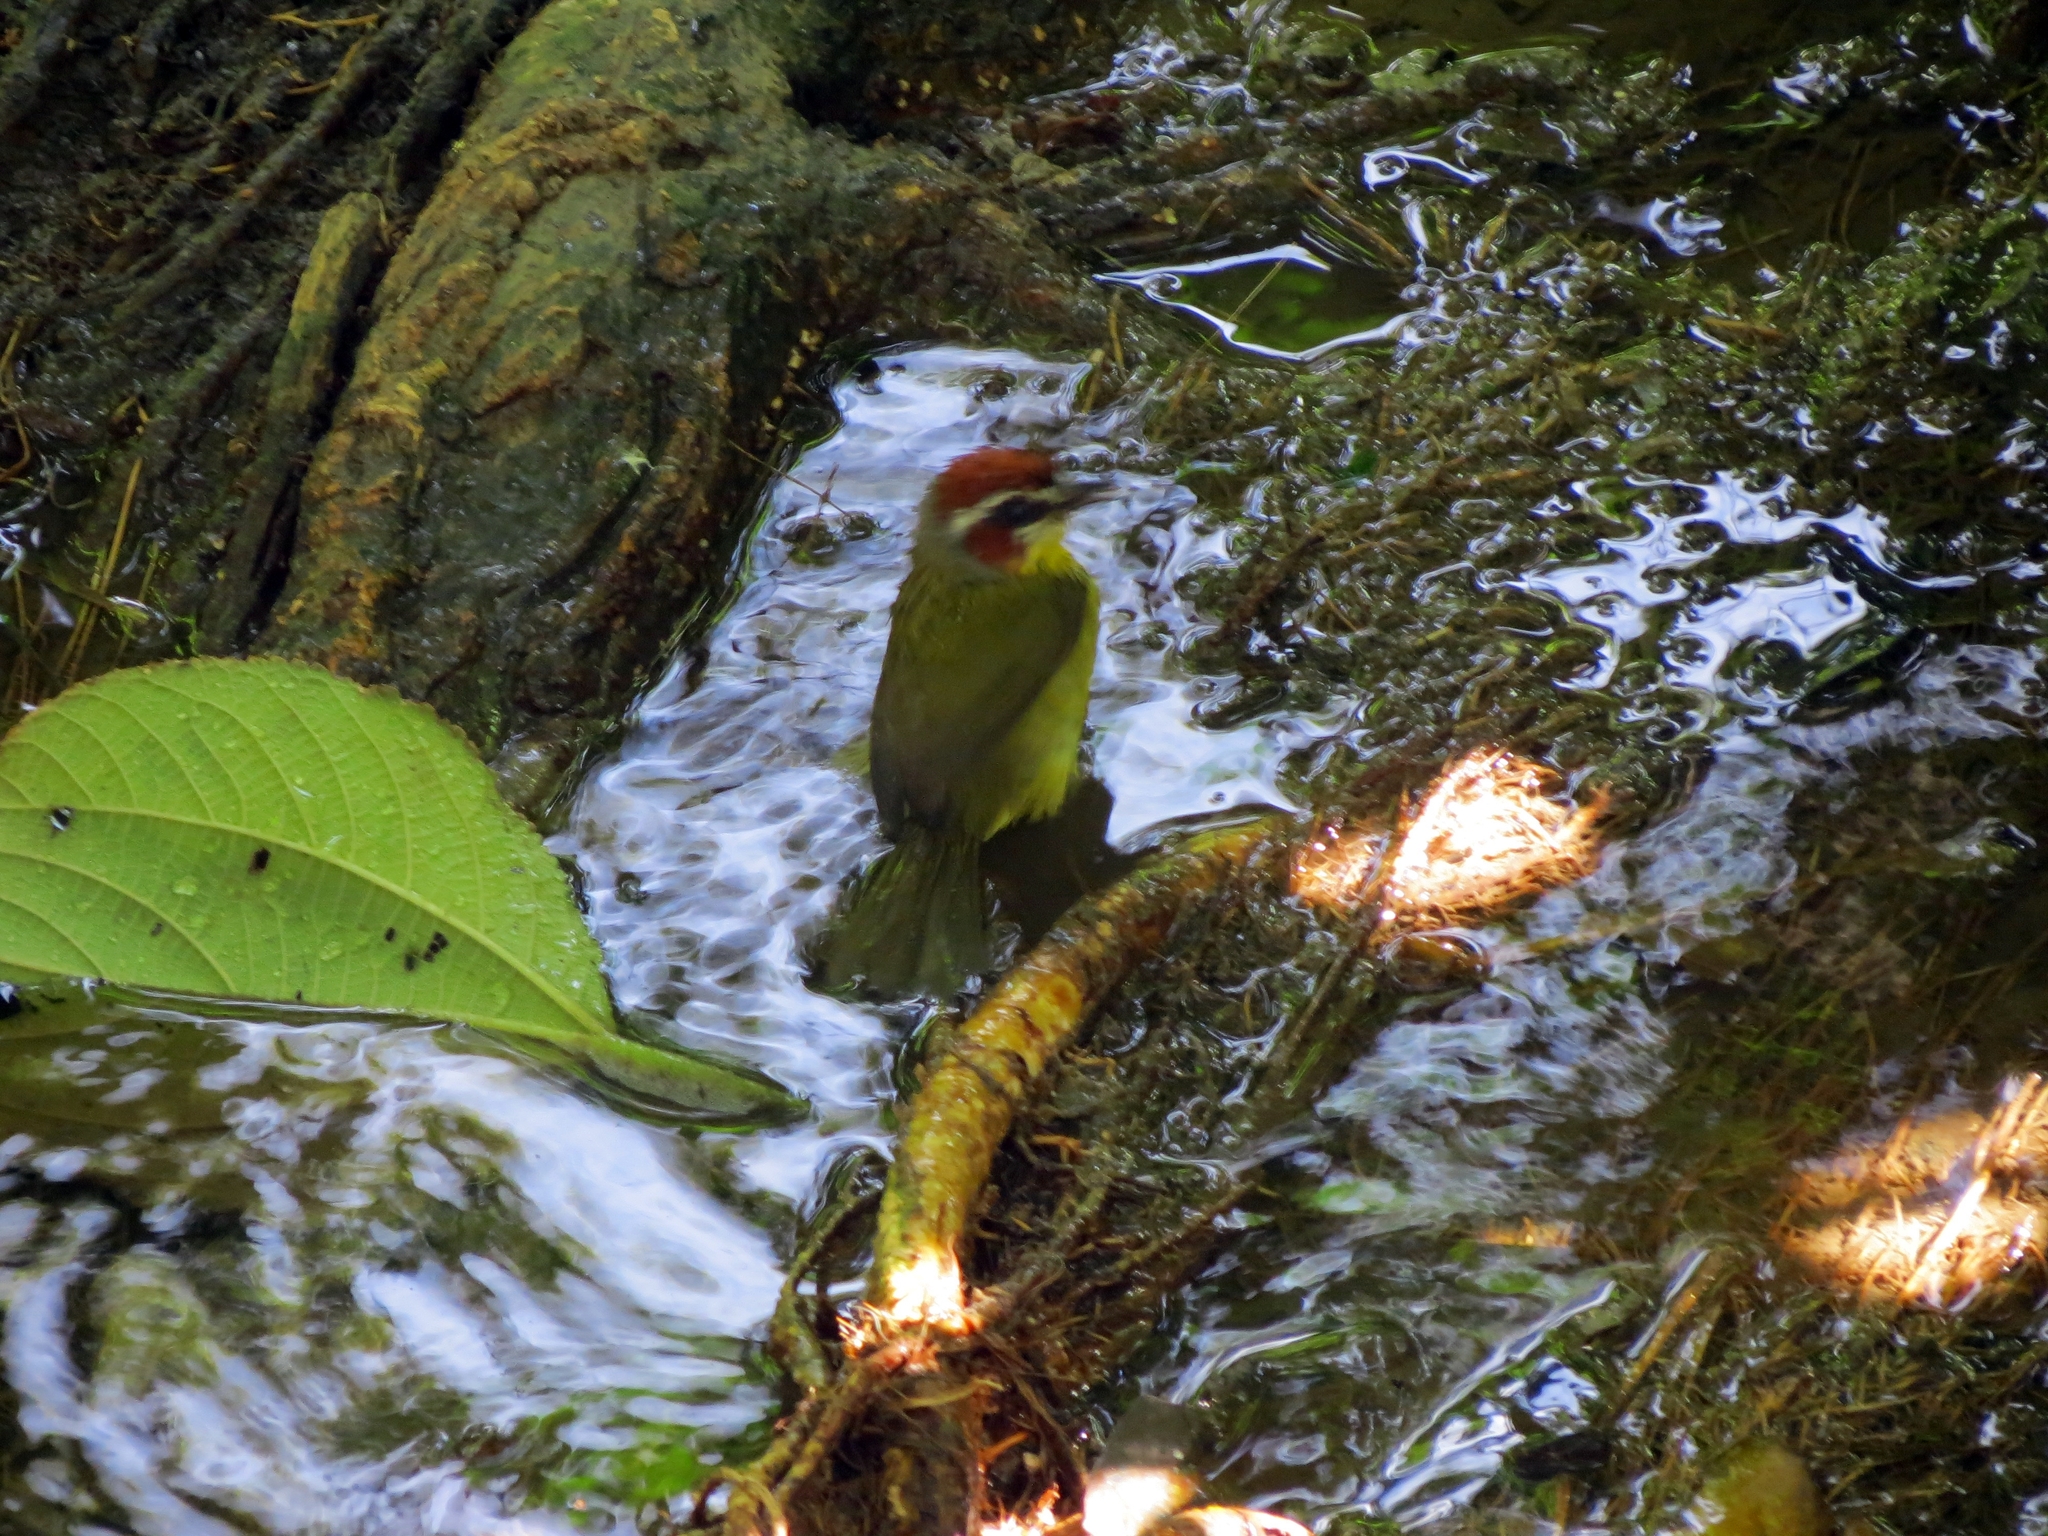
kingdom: Animalia
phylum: Chordata
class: Aves
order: Passeriformes
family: Parulidae
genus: Basileuterus
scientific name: Basileuterus rufifrons
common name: Rufous-capped warbler
